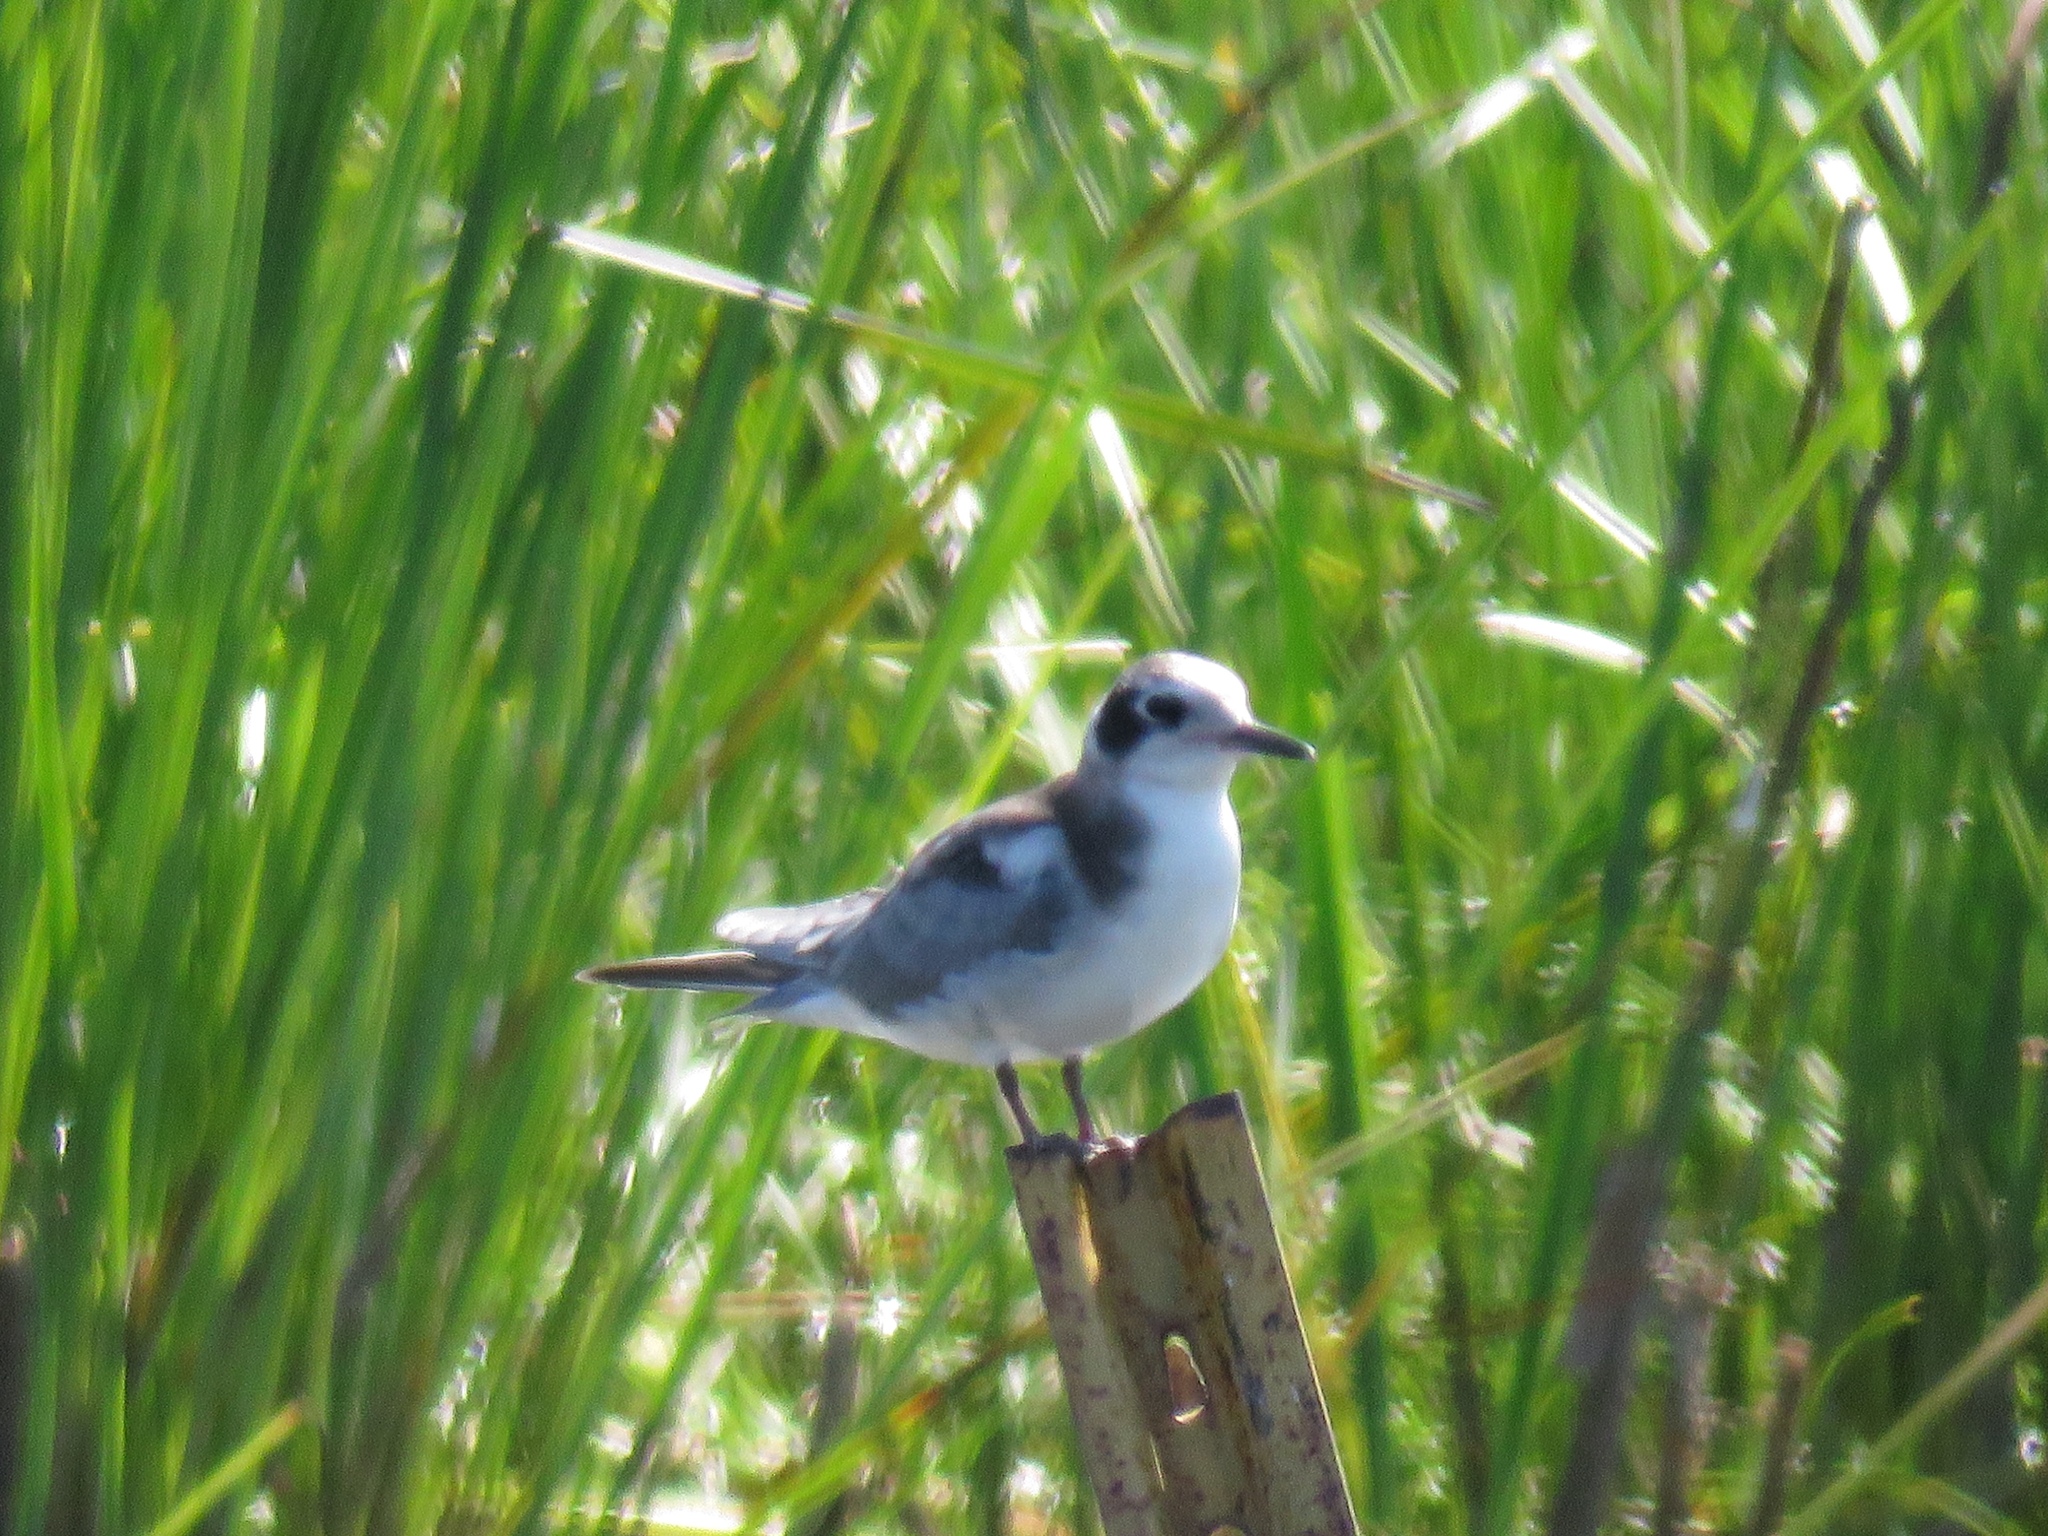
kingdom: Animalia
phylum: Chordata
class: Aves
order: Charadriiformes
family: Laridae
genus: Chlidonias
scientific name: Chlidonias niger
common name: Black tern
